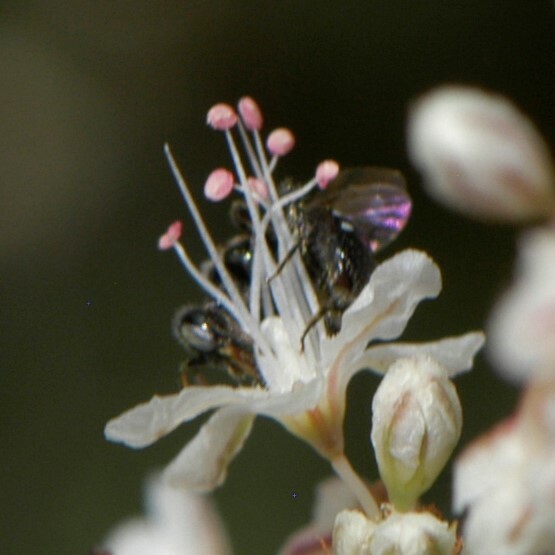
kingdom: Animalia
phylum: Arthropoda
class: Insecta
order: Hymenoptera
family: Andrenidae
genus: Perdita
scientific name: Perdita
